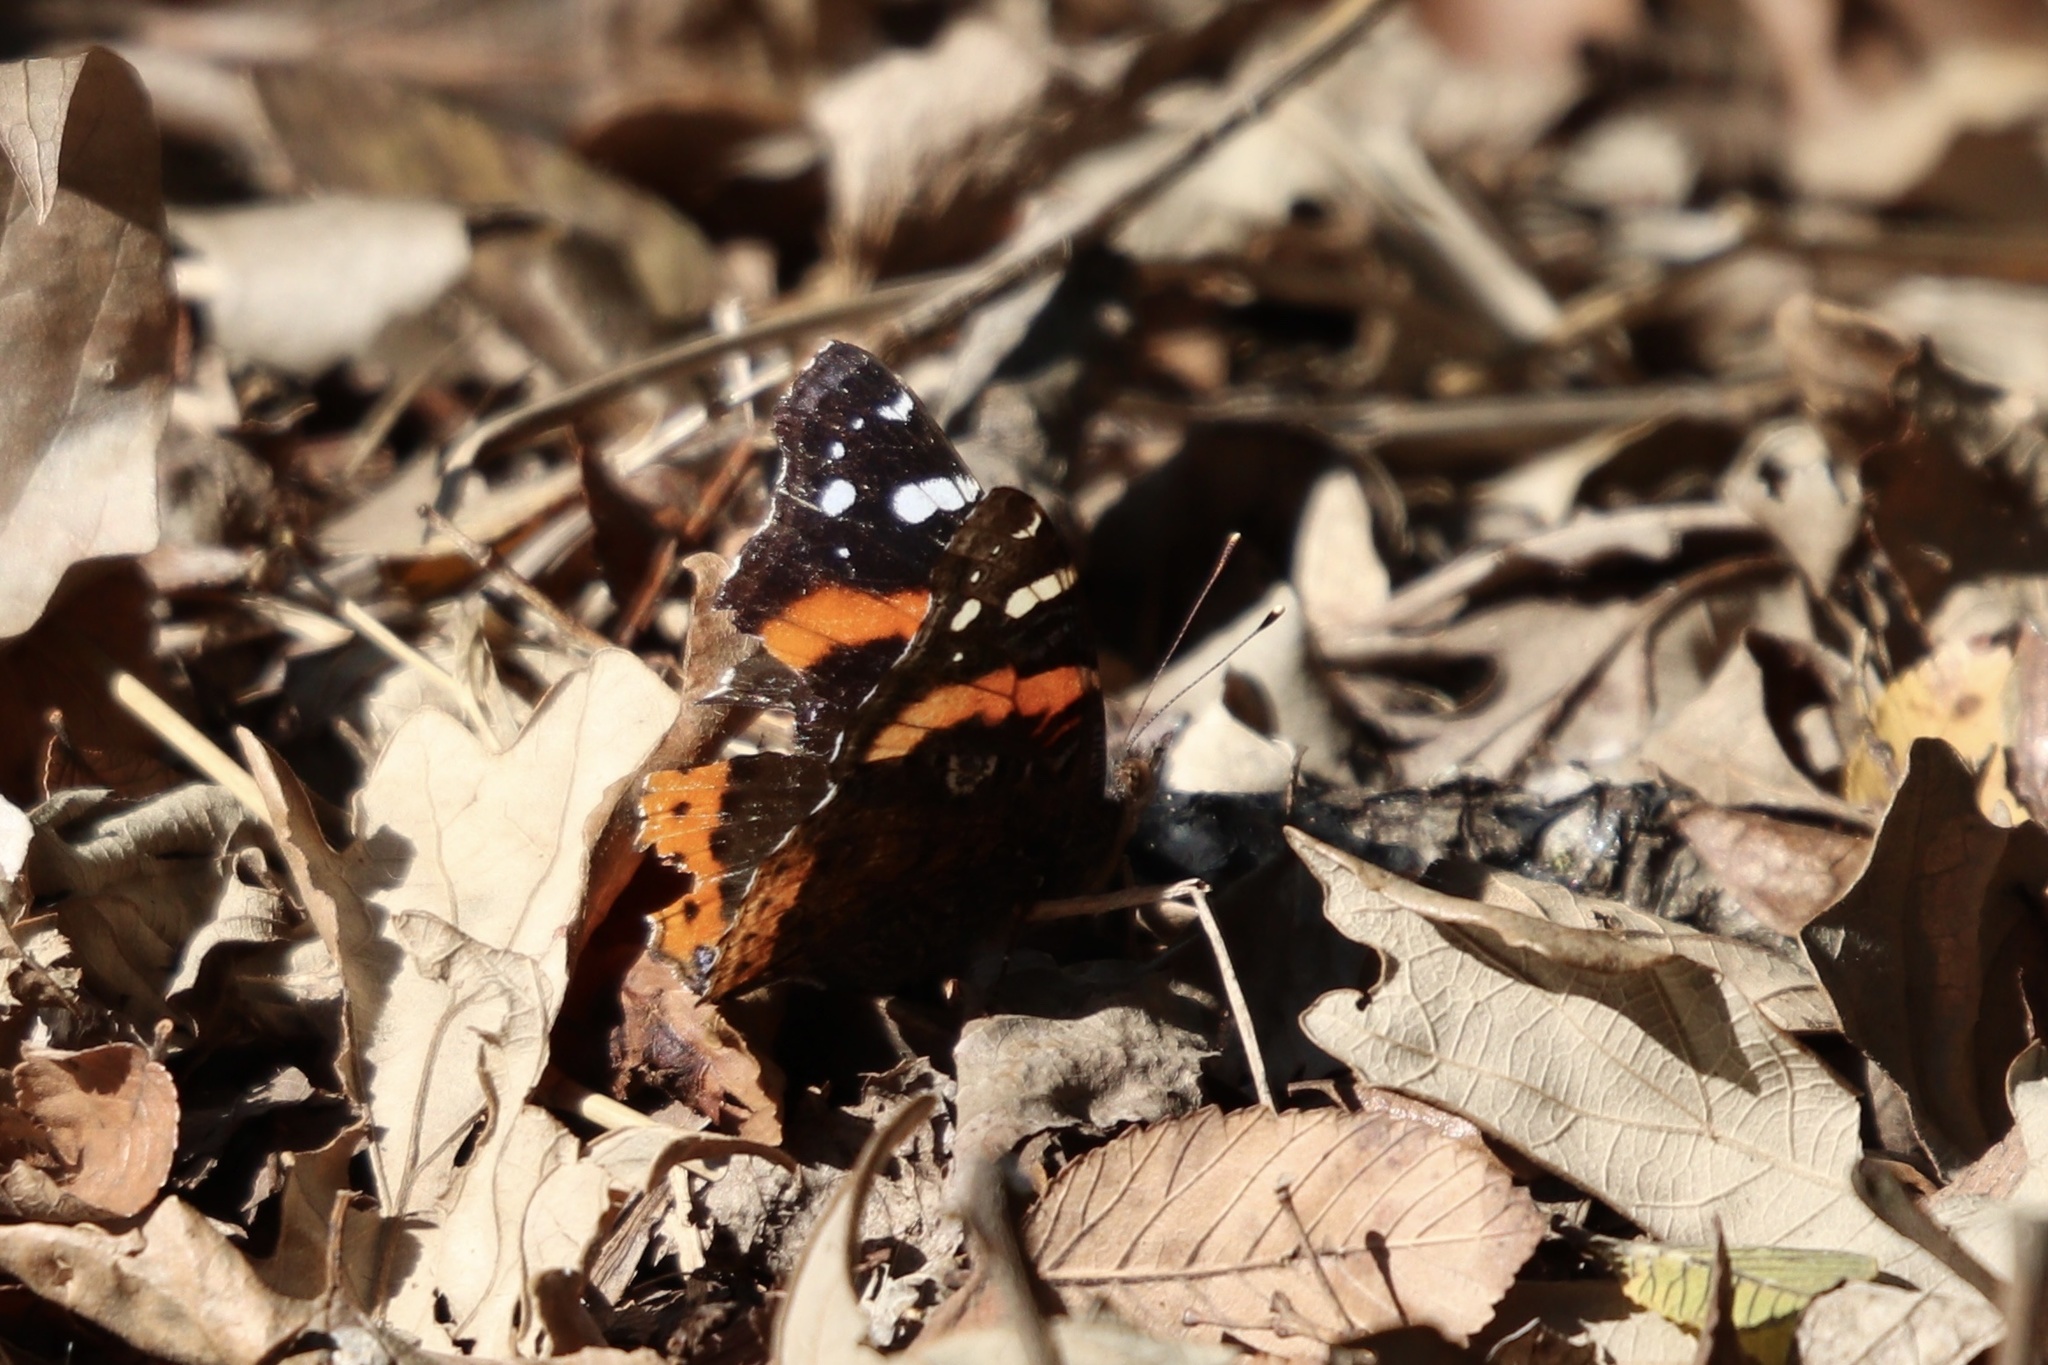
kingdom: Animalia
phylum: Arthropoda
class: Insecta
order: Lepidoptera
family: Nymphalidae
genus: Vanessa
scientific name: Vanessa atalanta
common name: Red admiral
